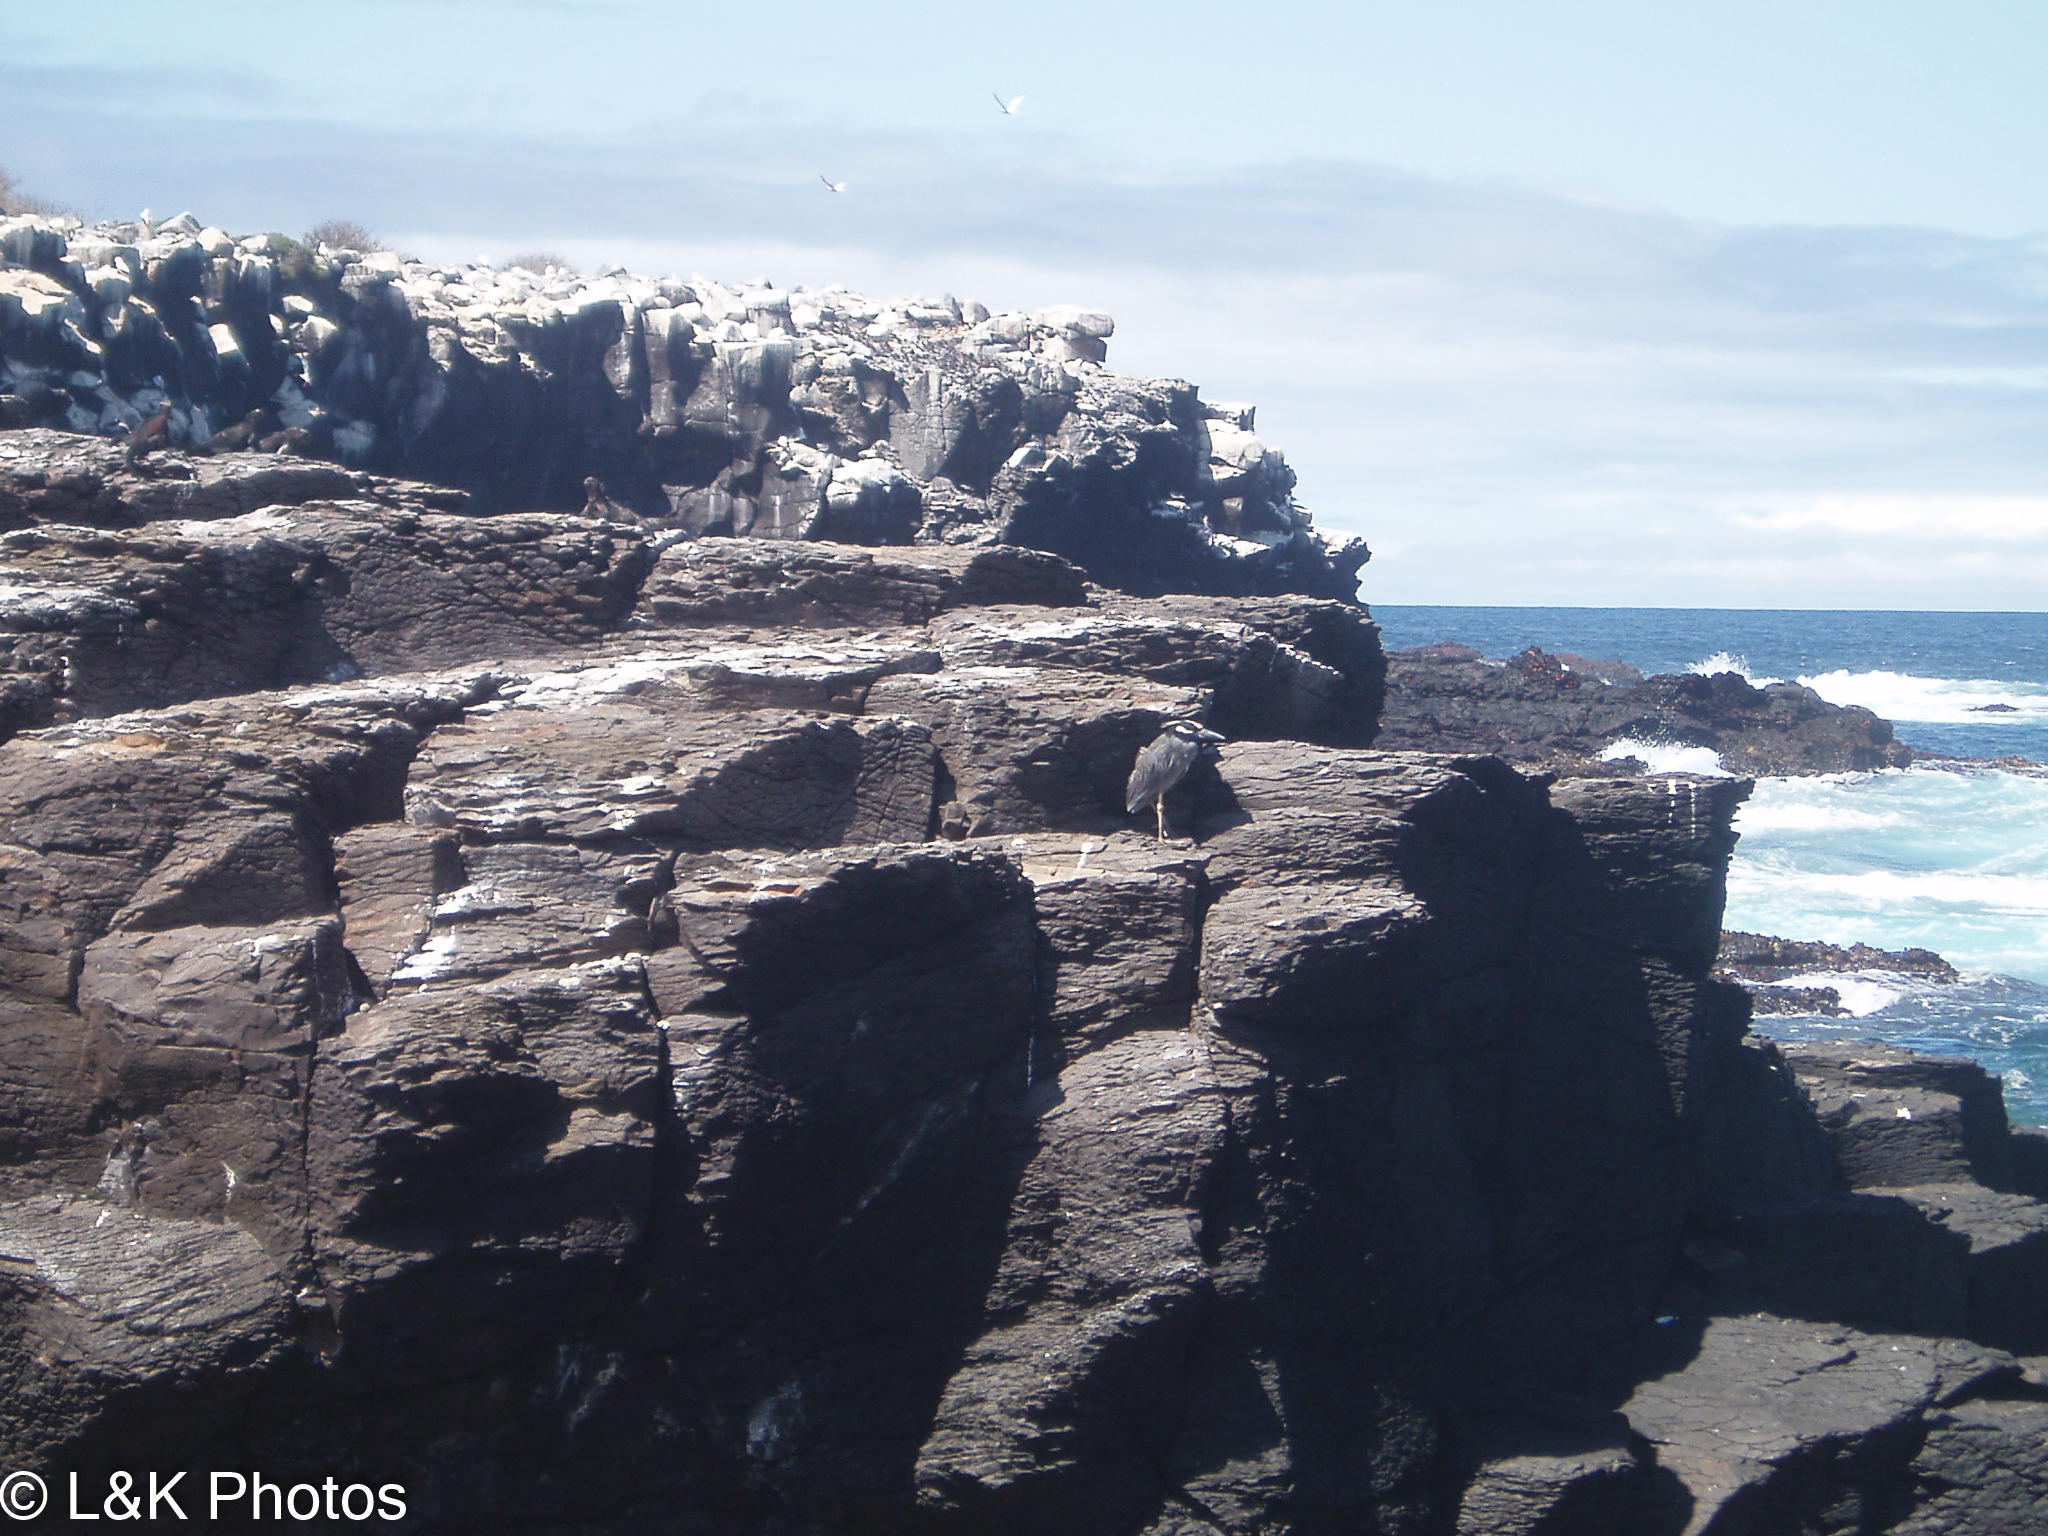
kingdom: Animalia
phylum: Chordata
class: Aves
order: Pelecaniformes
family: Ardeidae
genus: Nyctanassa
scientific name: Nyctanassa violacea
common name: Yellow-crowned night heron
